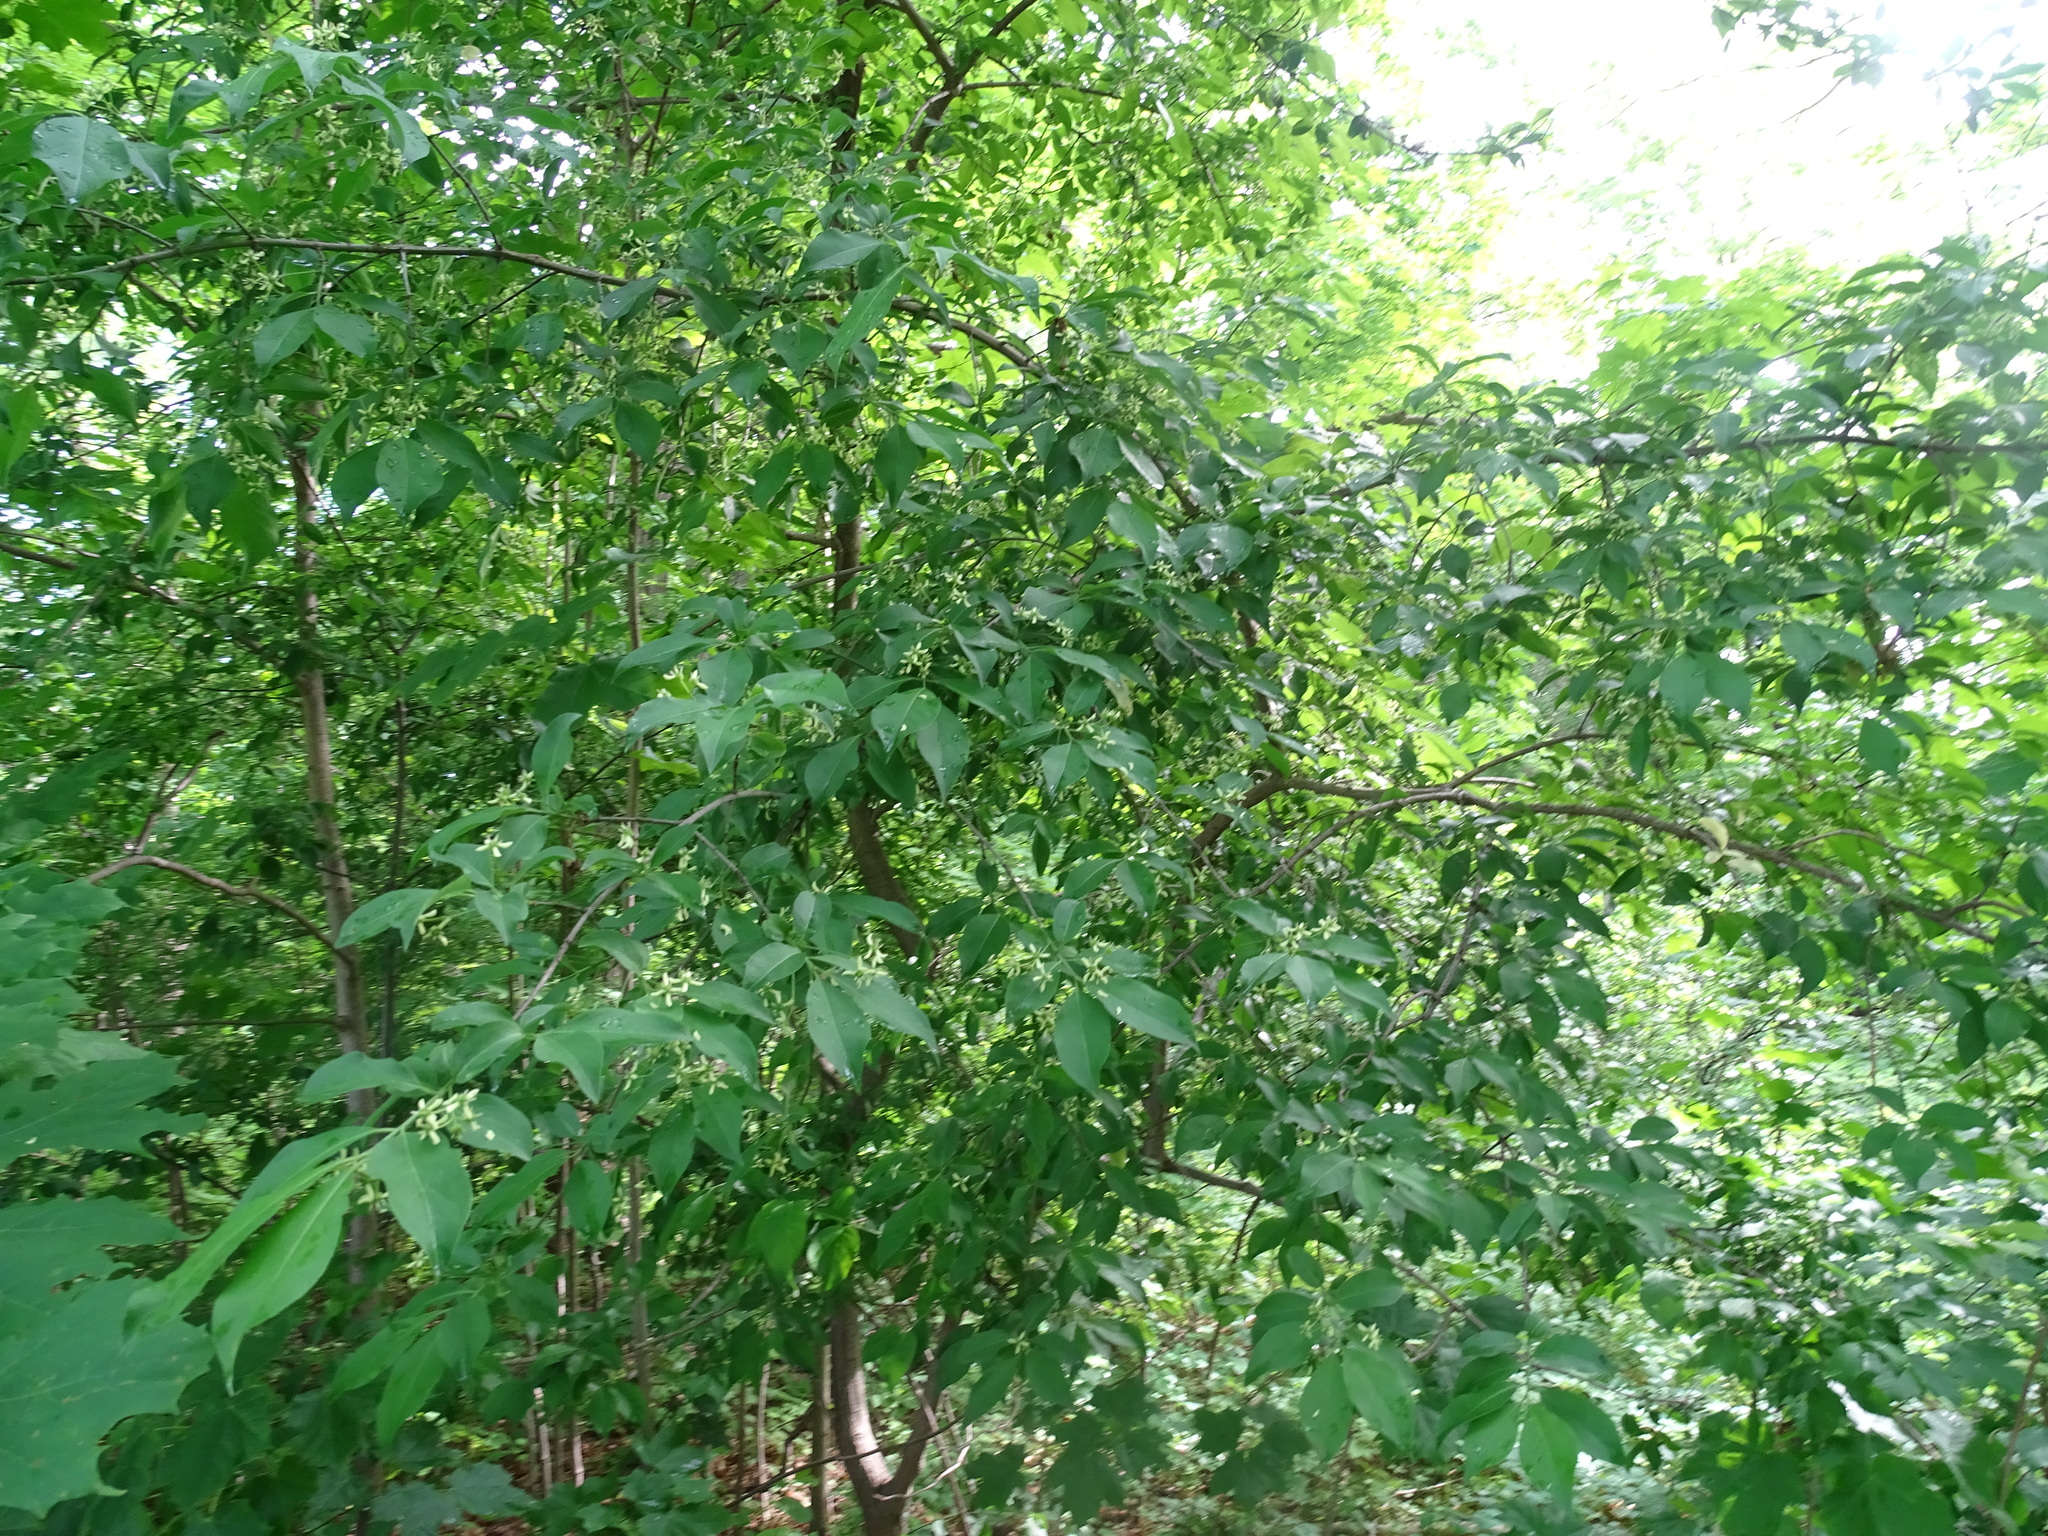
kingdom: Plantae
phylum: Tracheophyta
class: Magnoliopsida
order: Celastrales
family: Celastraceae
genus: Euonymus
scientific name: Euonymus europaeus
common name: Spindle
